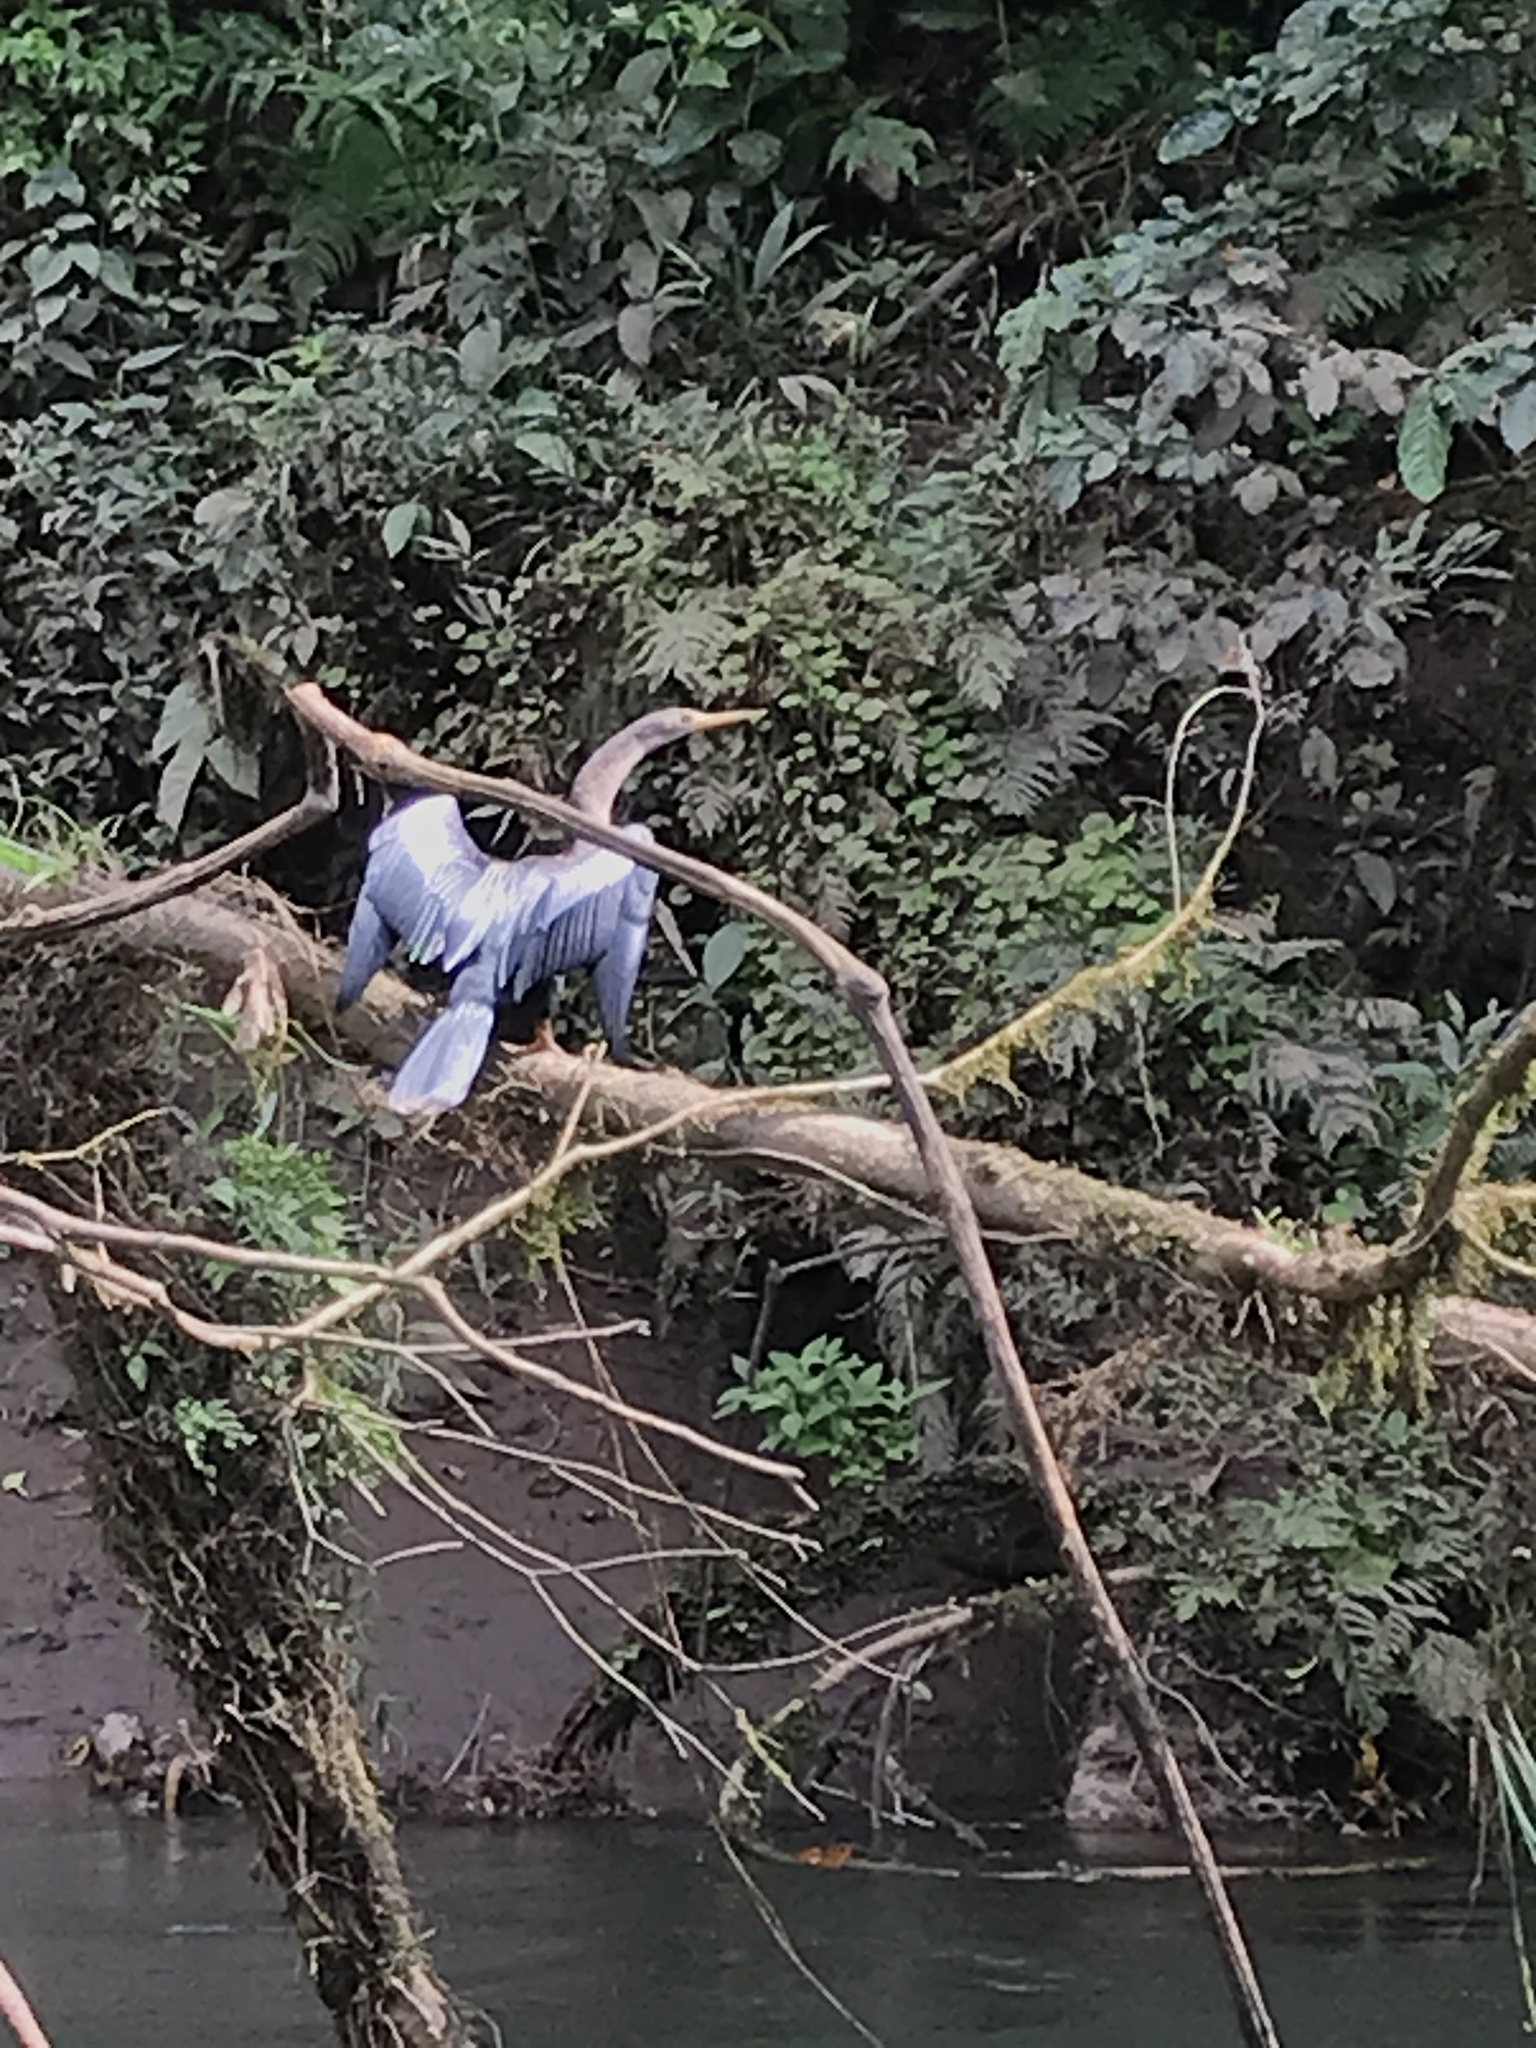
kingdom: Animalia
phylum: Chordata
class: Aves
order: Suliformes
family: Anhingidae
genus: Anhinga
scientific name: Anhinga anhinga
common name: Anhinga
